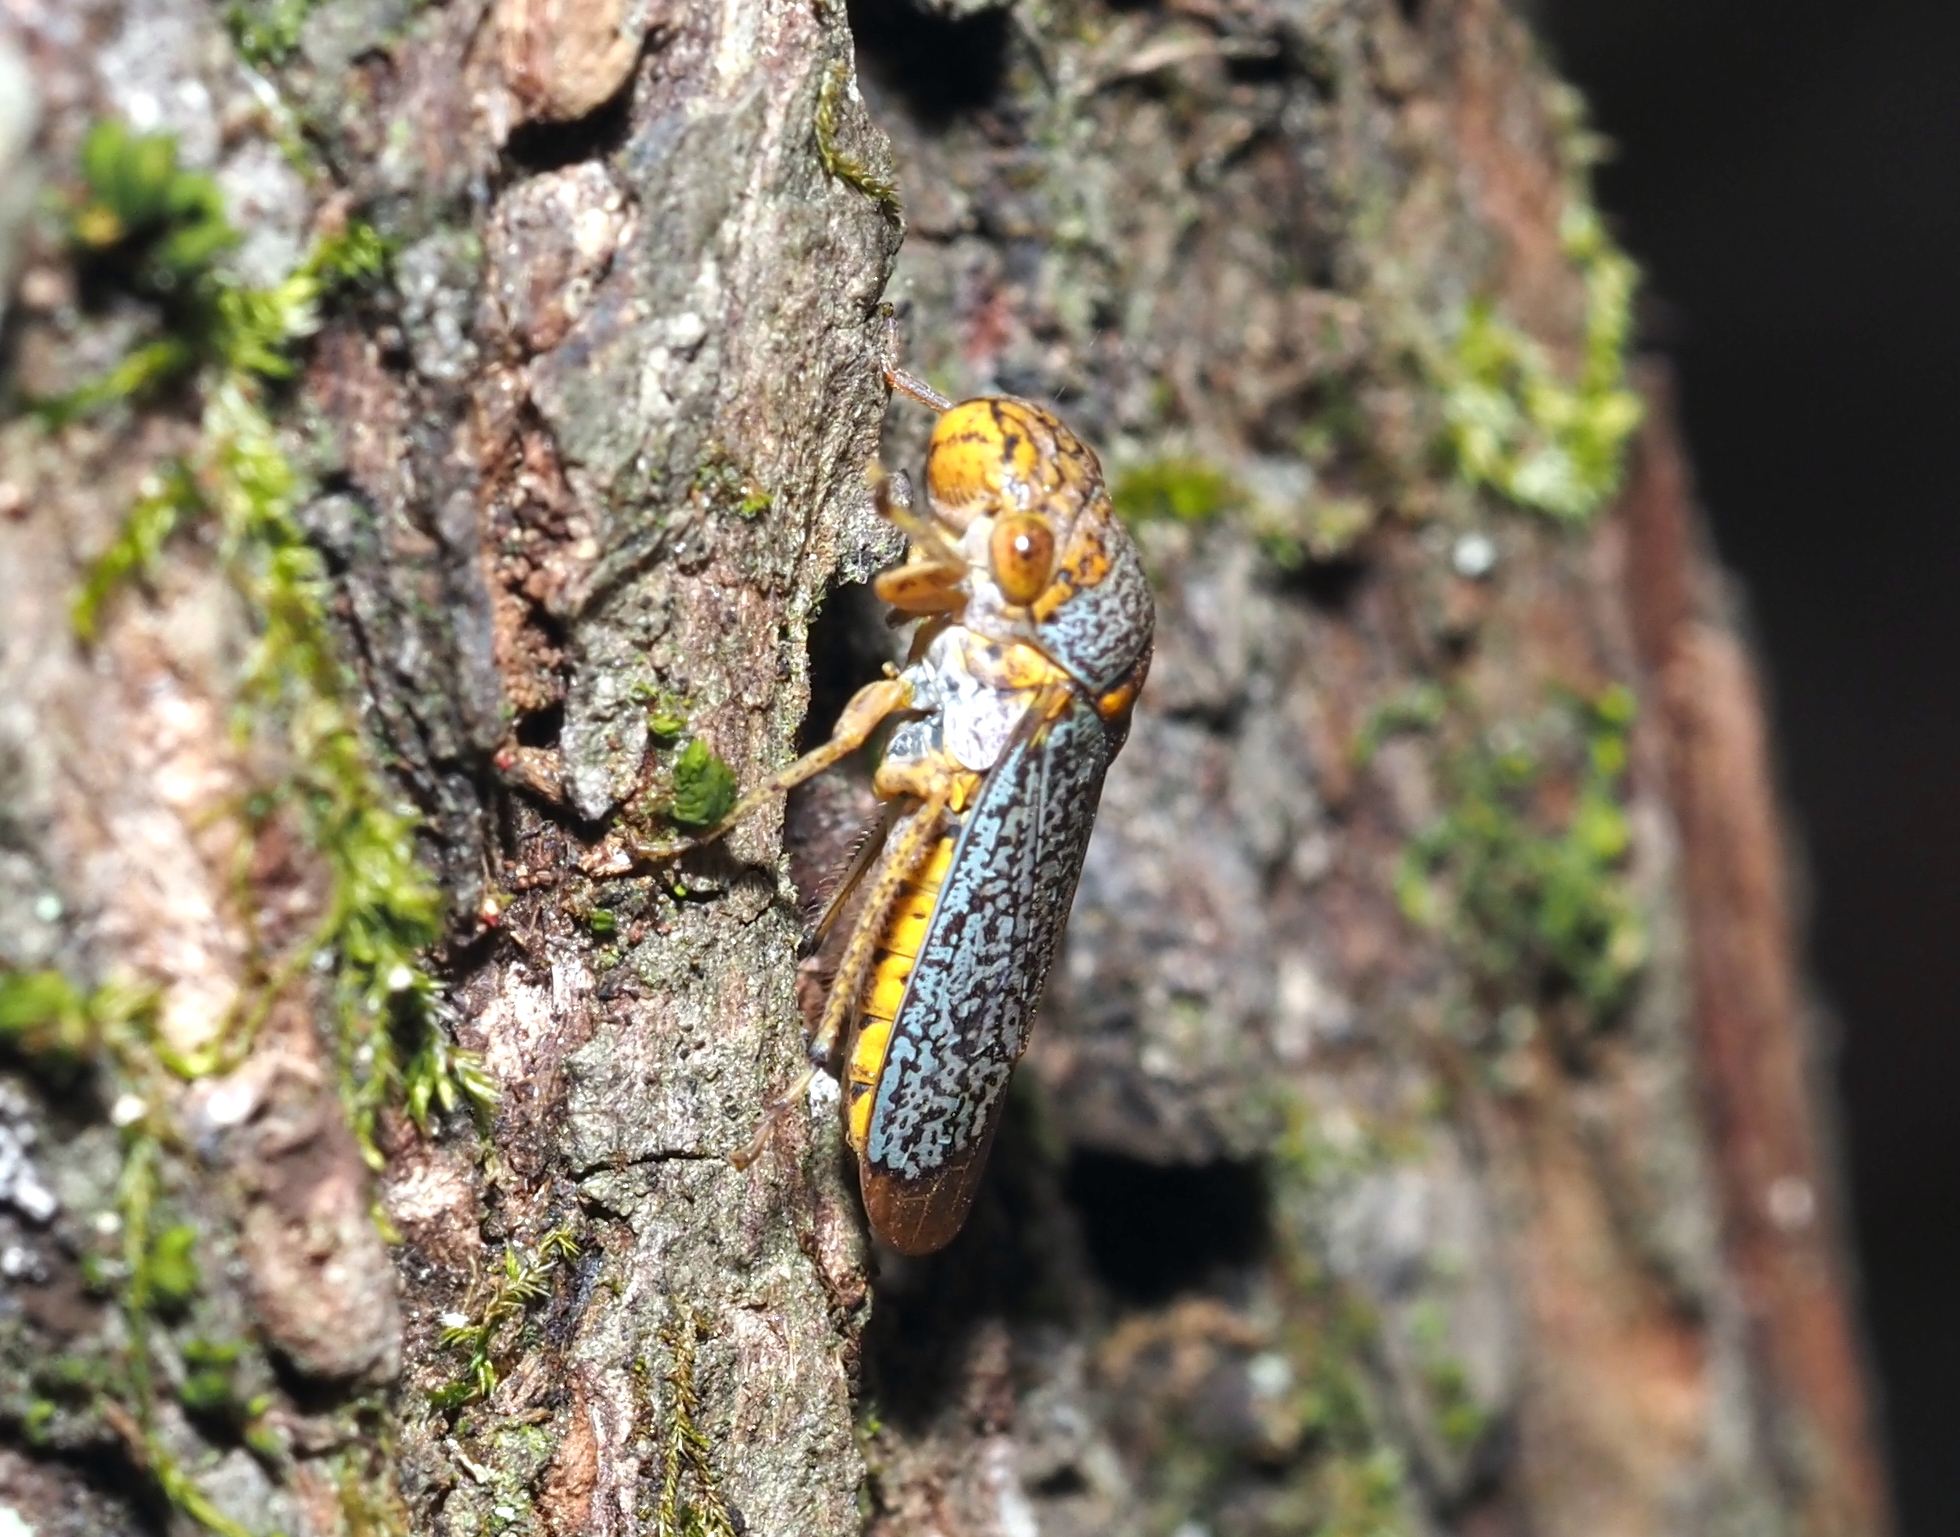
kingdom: Animalia
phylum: Arthropoda
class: Insecta
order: Hemiptera
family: Cicadellidae
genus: Oncometopia
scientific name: Oncometopia orbona
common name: Broad-headed sharpshooter
